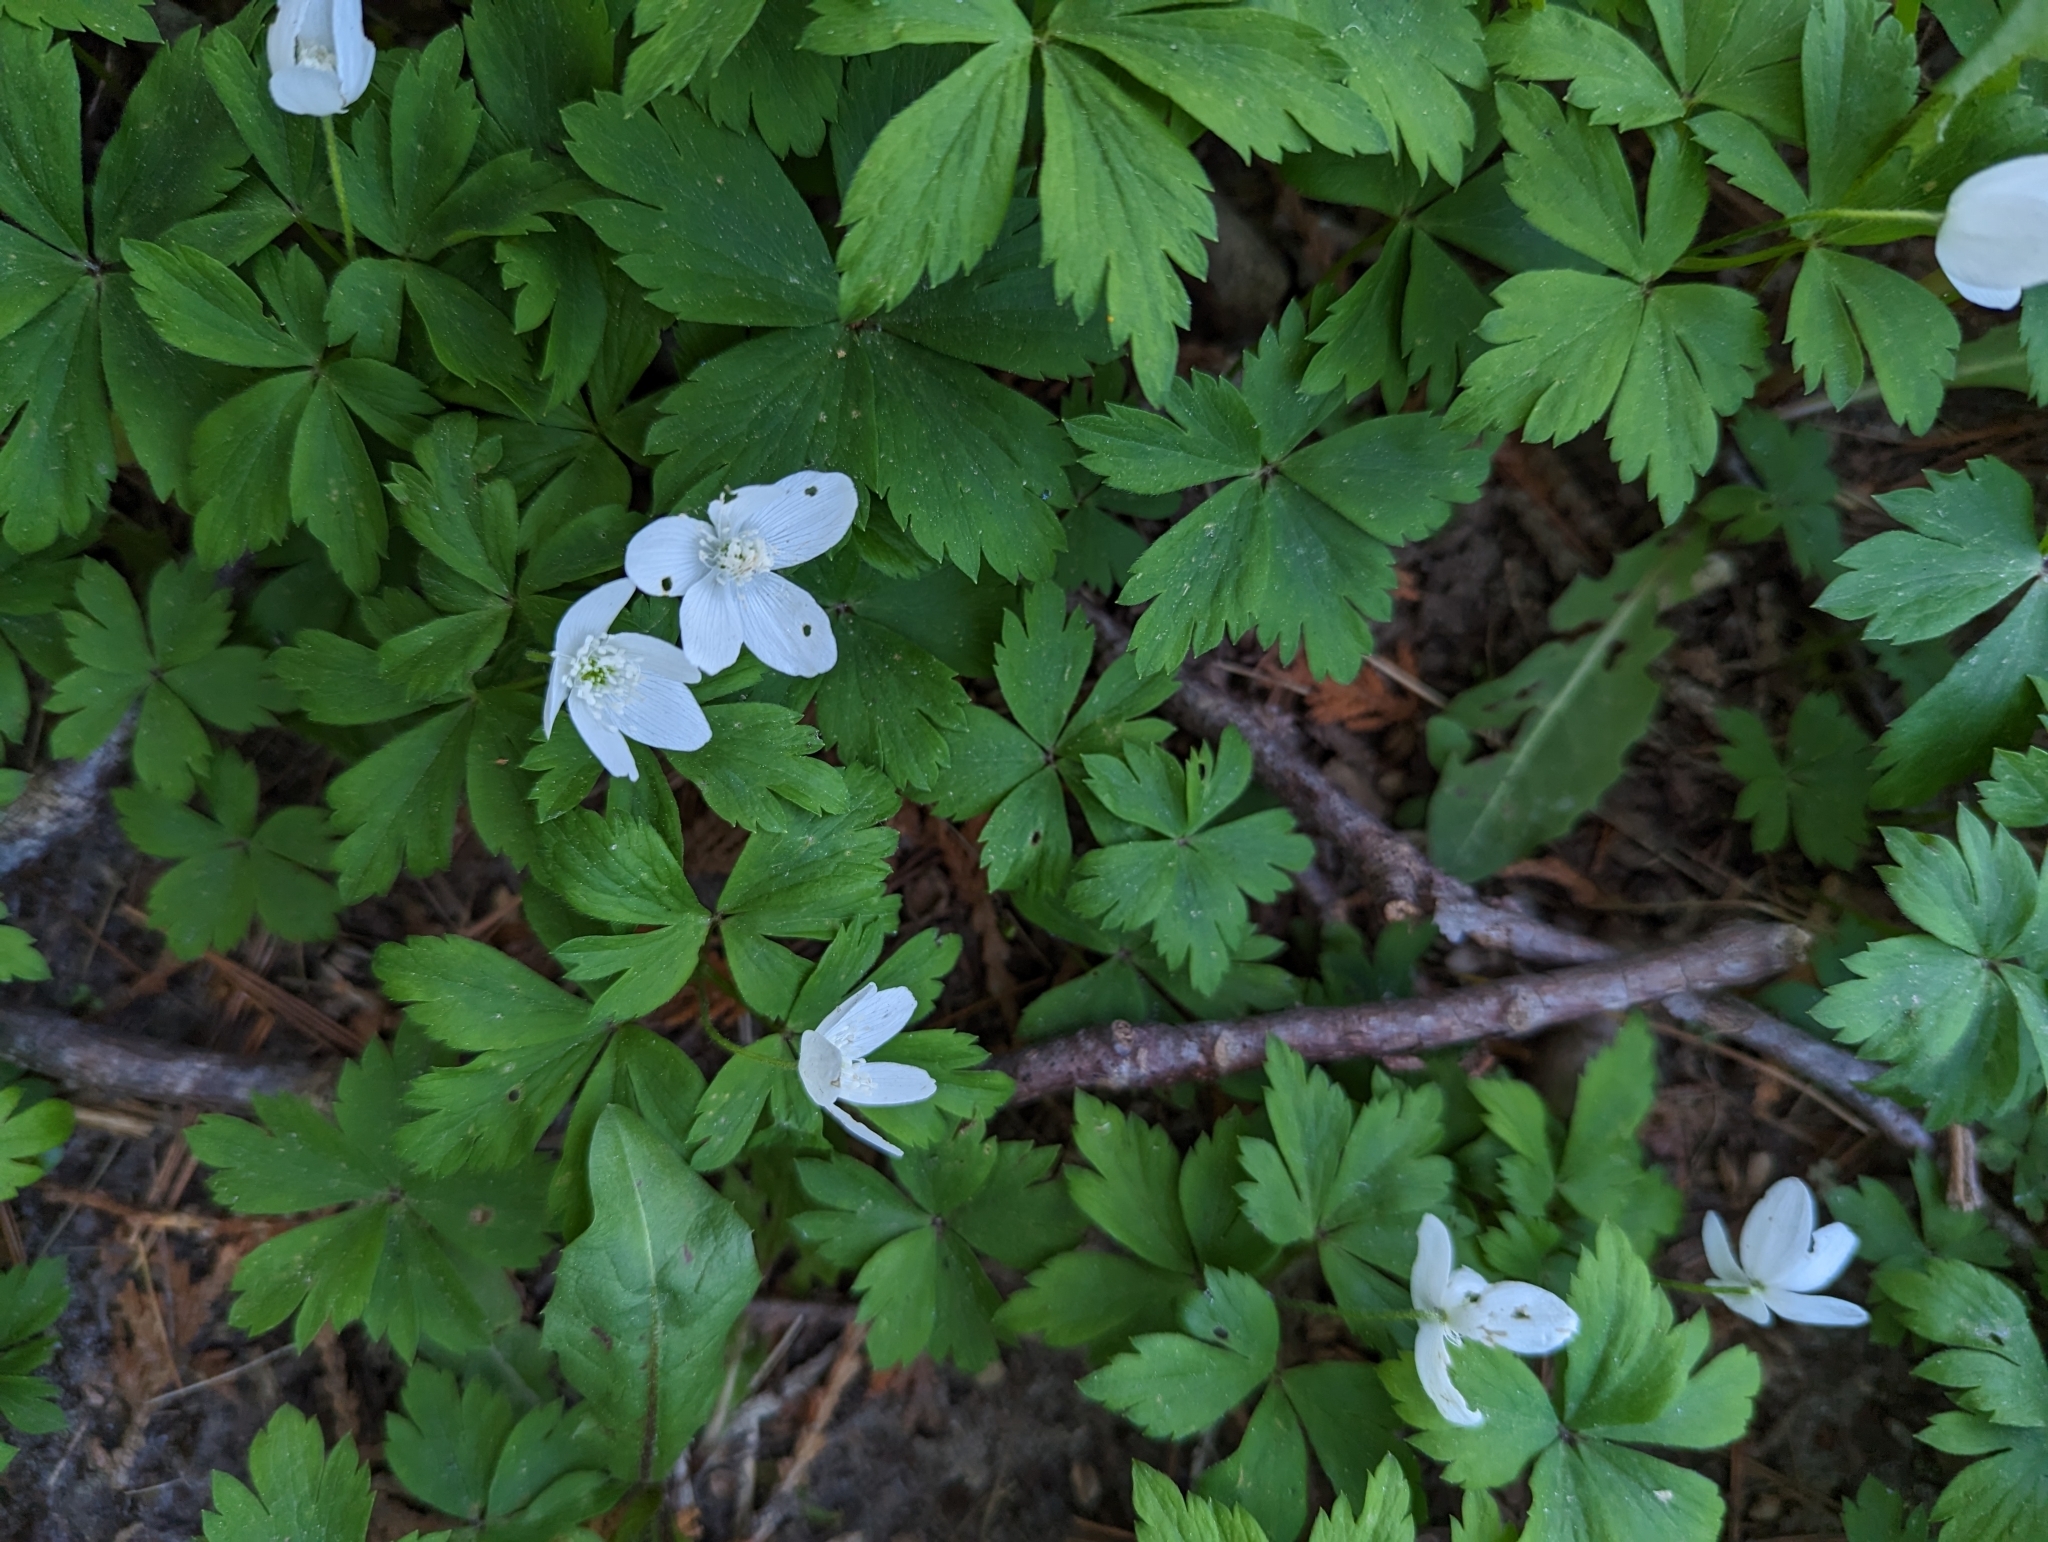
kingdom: Plantae
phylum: Tracheophyta
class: Magnoliopsida
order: Ranunculales
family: Ranunculaceae
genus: Anemone
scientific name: Anemone quinquefolia
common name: Wood anemone
